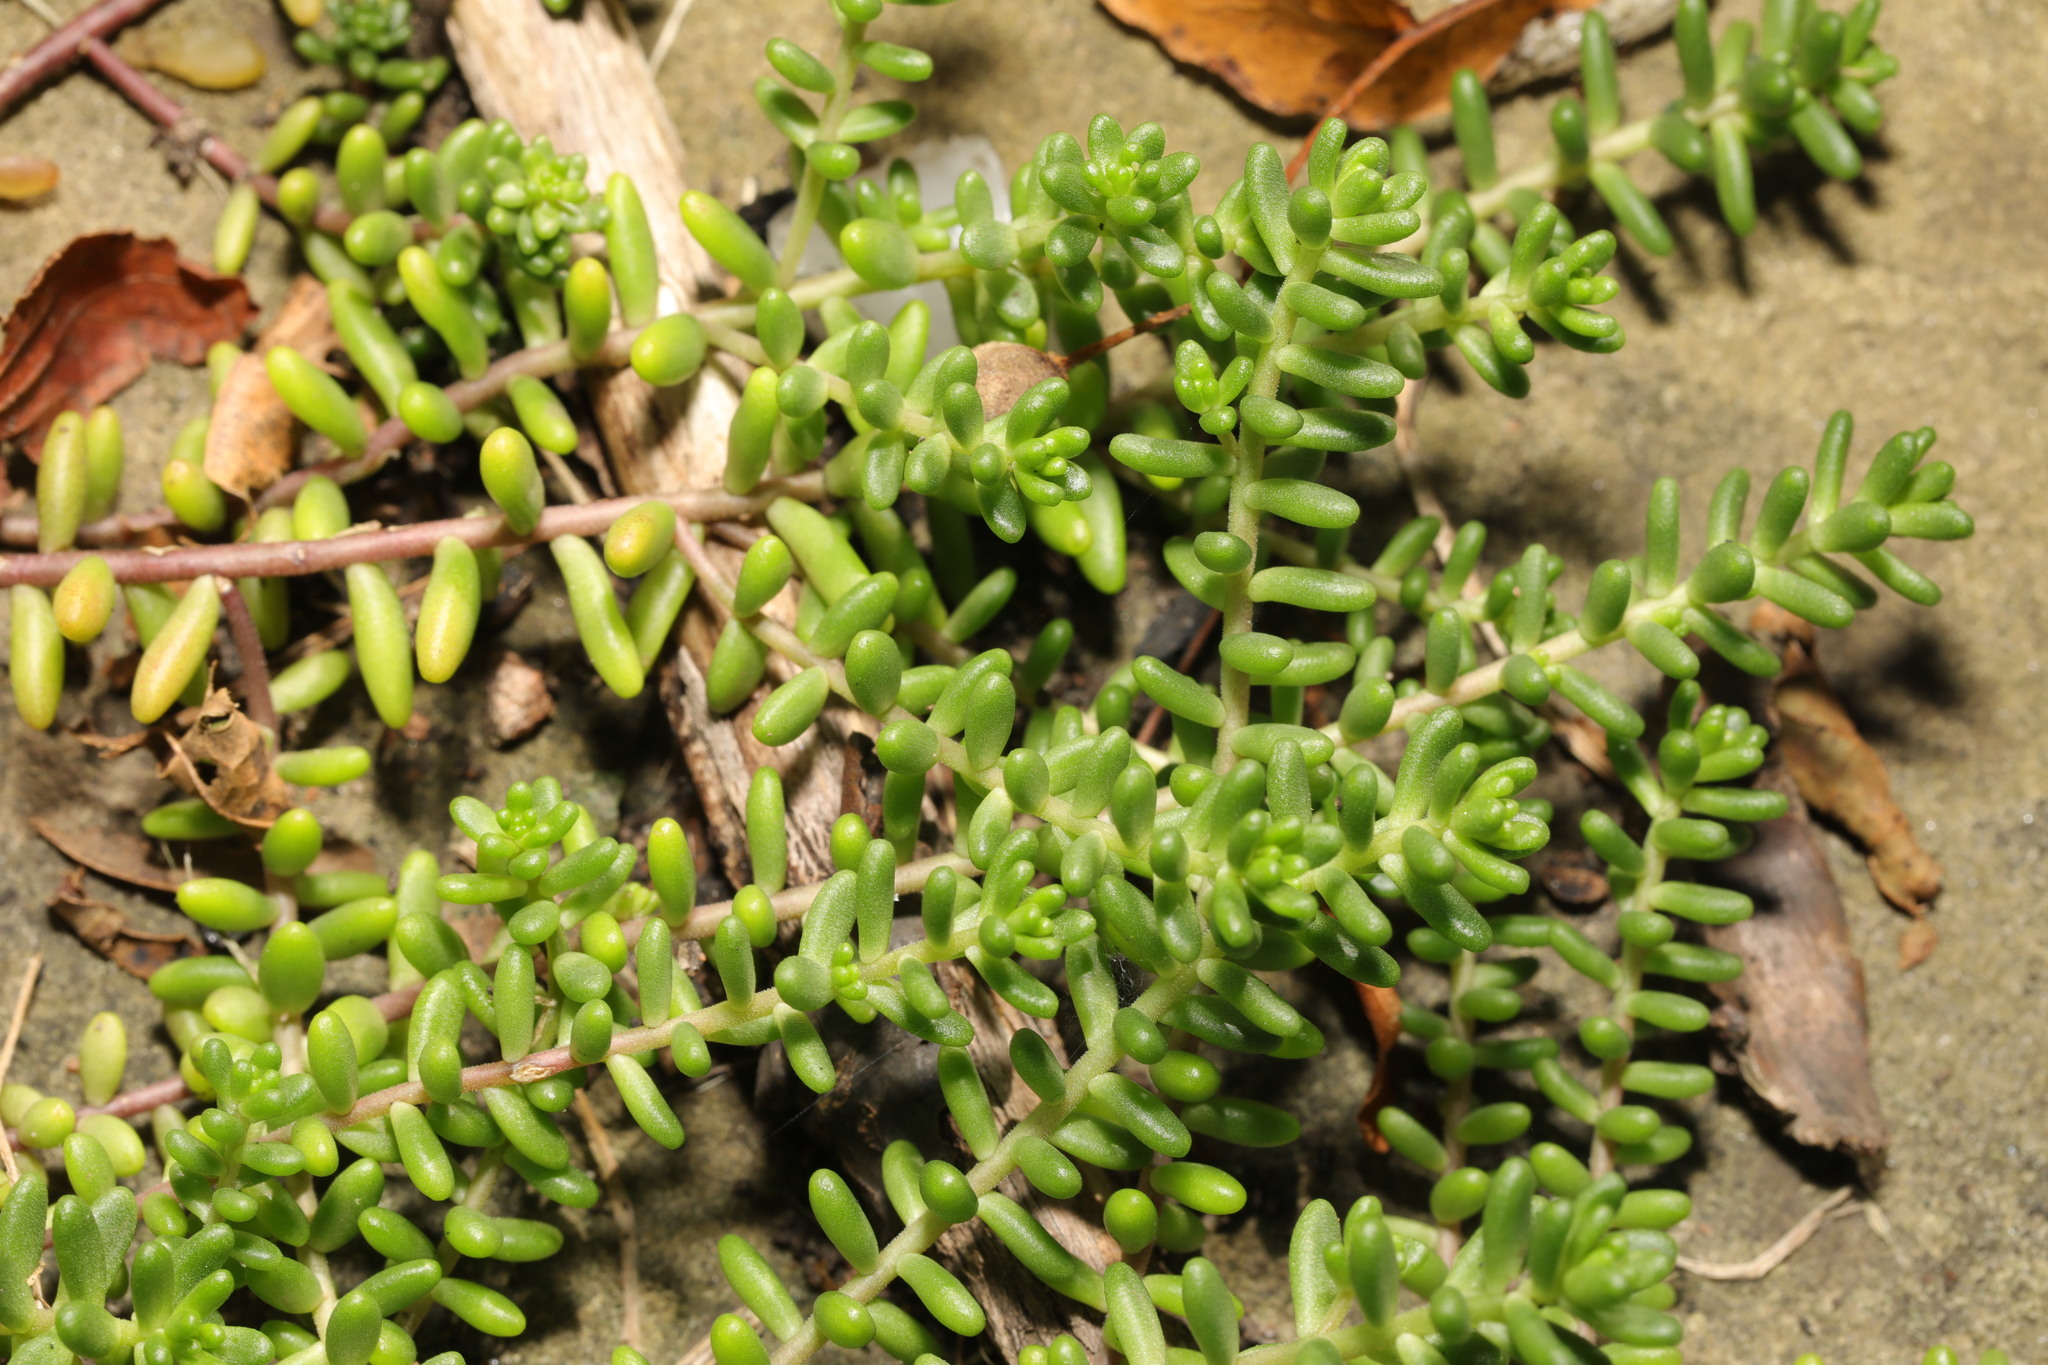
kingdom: Plantae
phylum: Tracheophyta
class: Magnoliopsida
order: Saxifragales
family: Crassulaceae
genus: Sedum
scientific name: Sedum album
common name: White stonecrop
